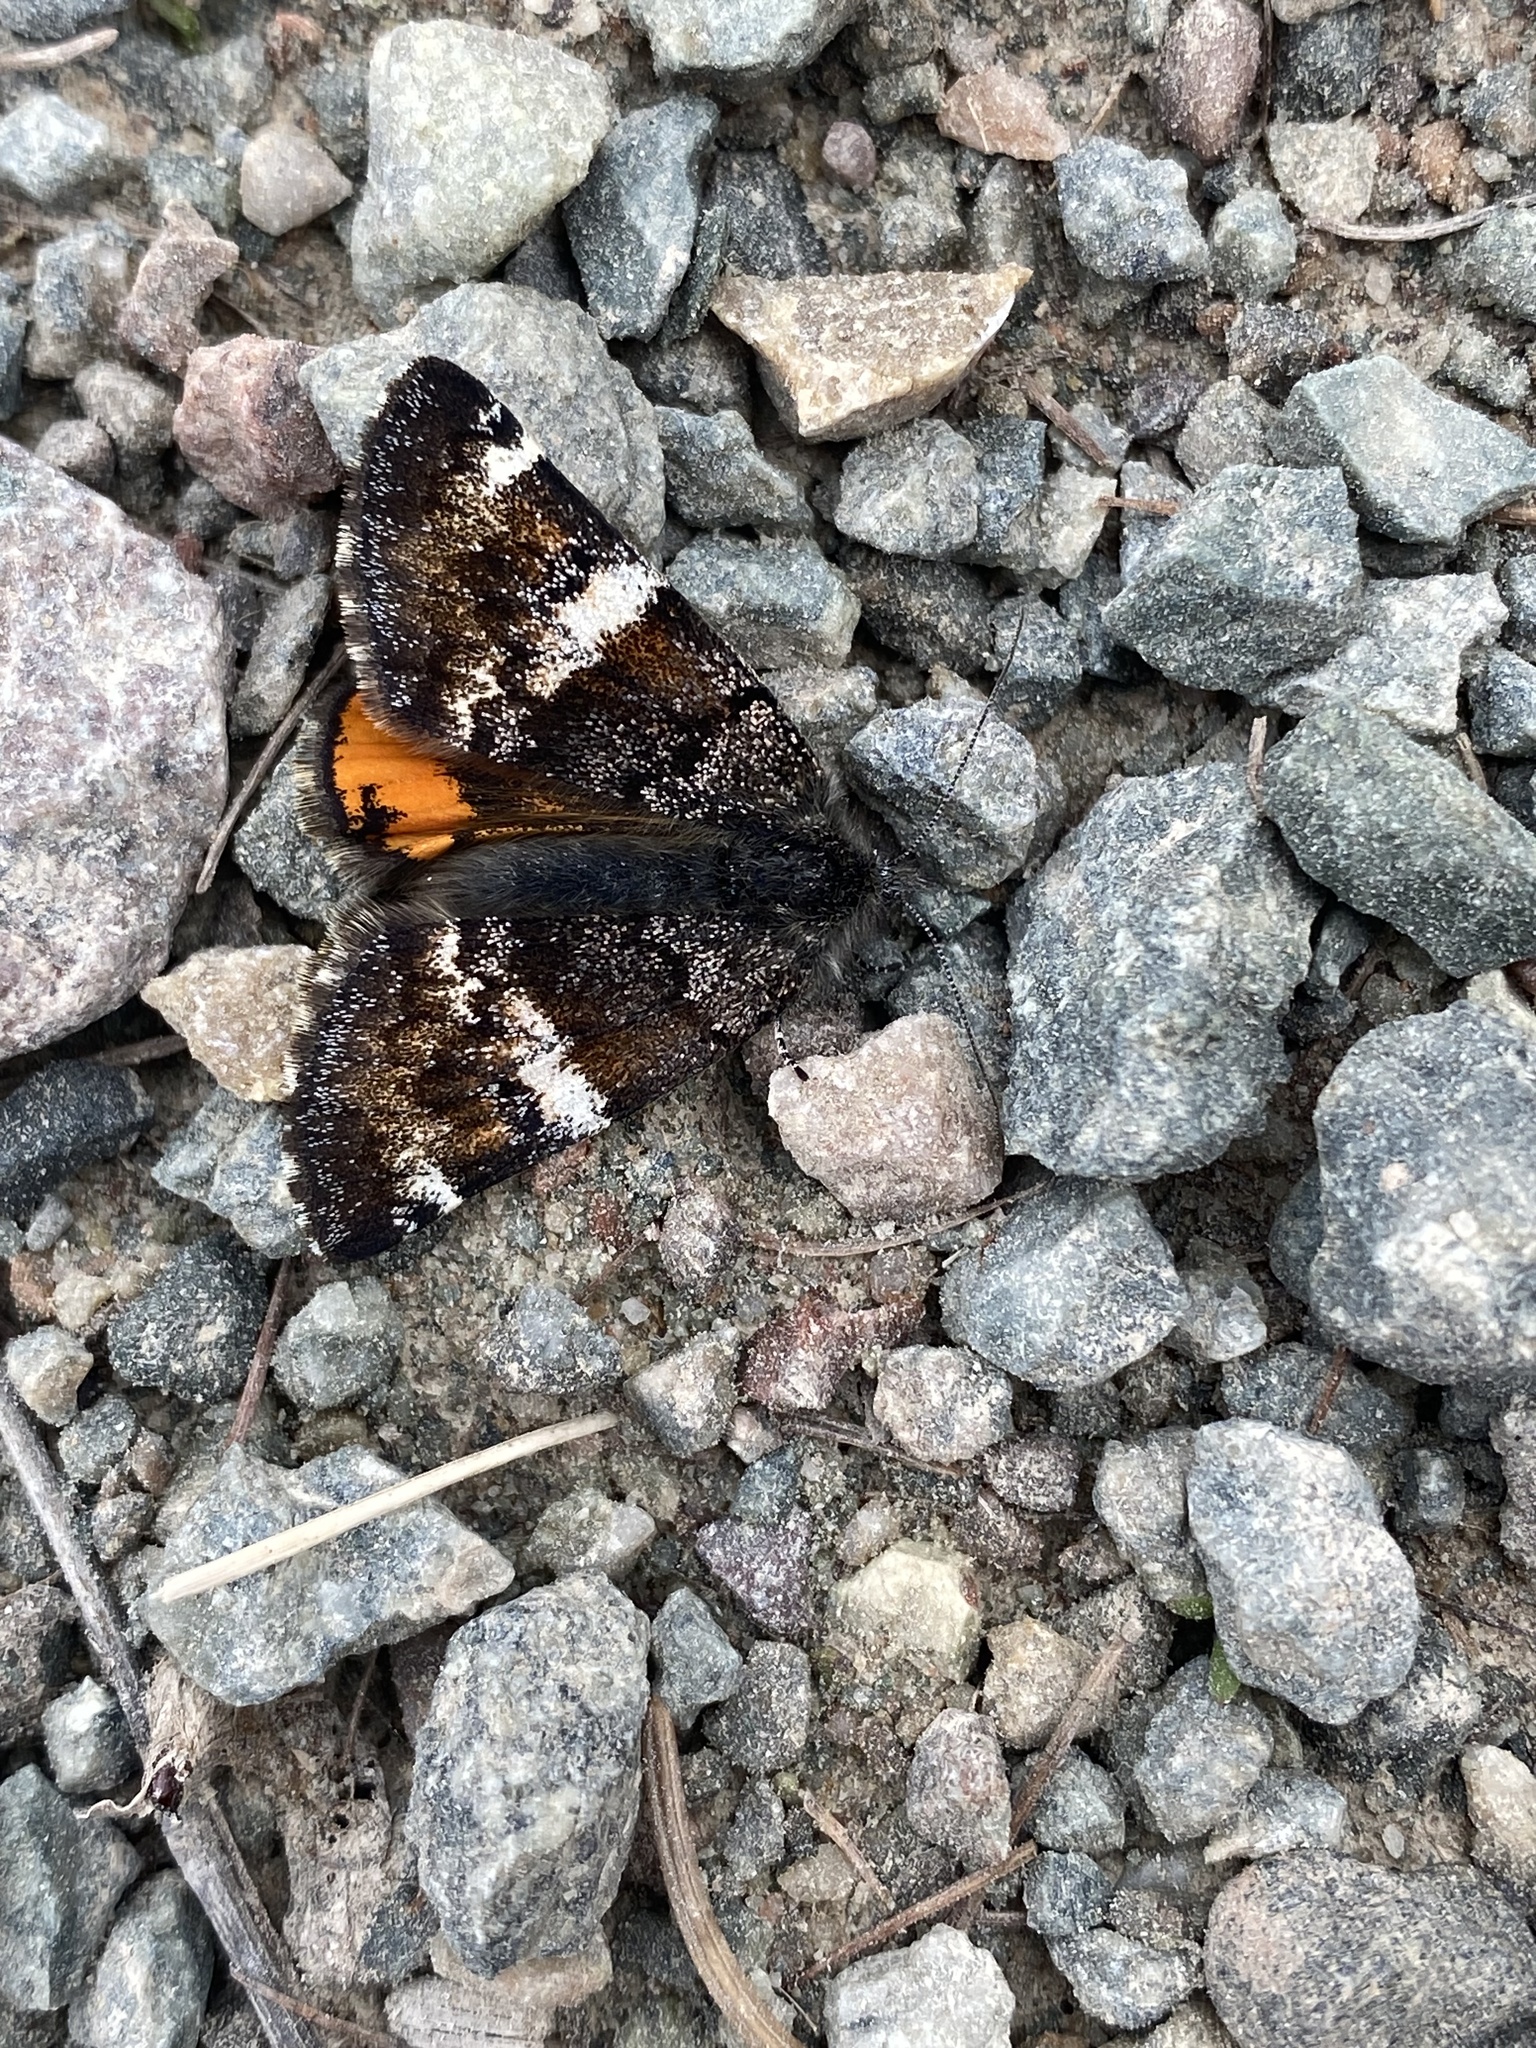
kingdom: Animalia
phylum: Arthropoda
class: Insecta
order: Lepidoptera
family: Geometridae
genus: Archiearis
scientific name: Archiearis infans
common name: First born geometer
